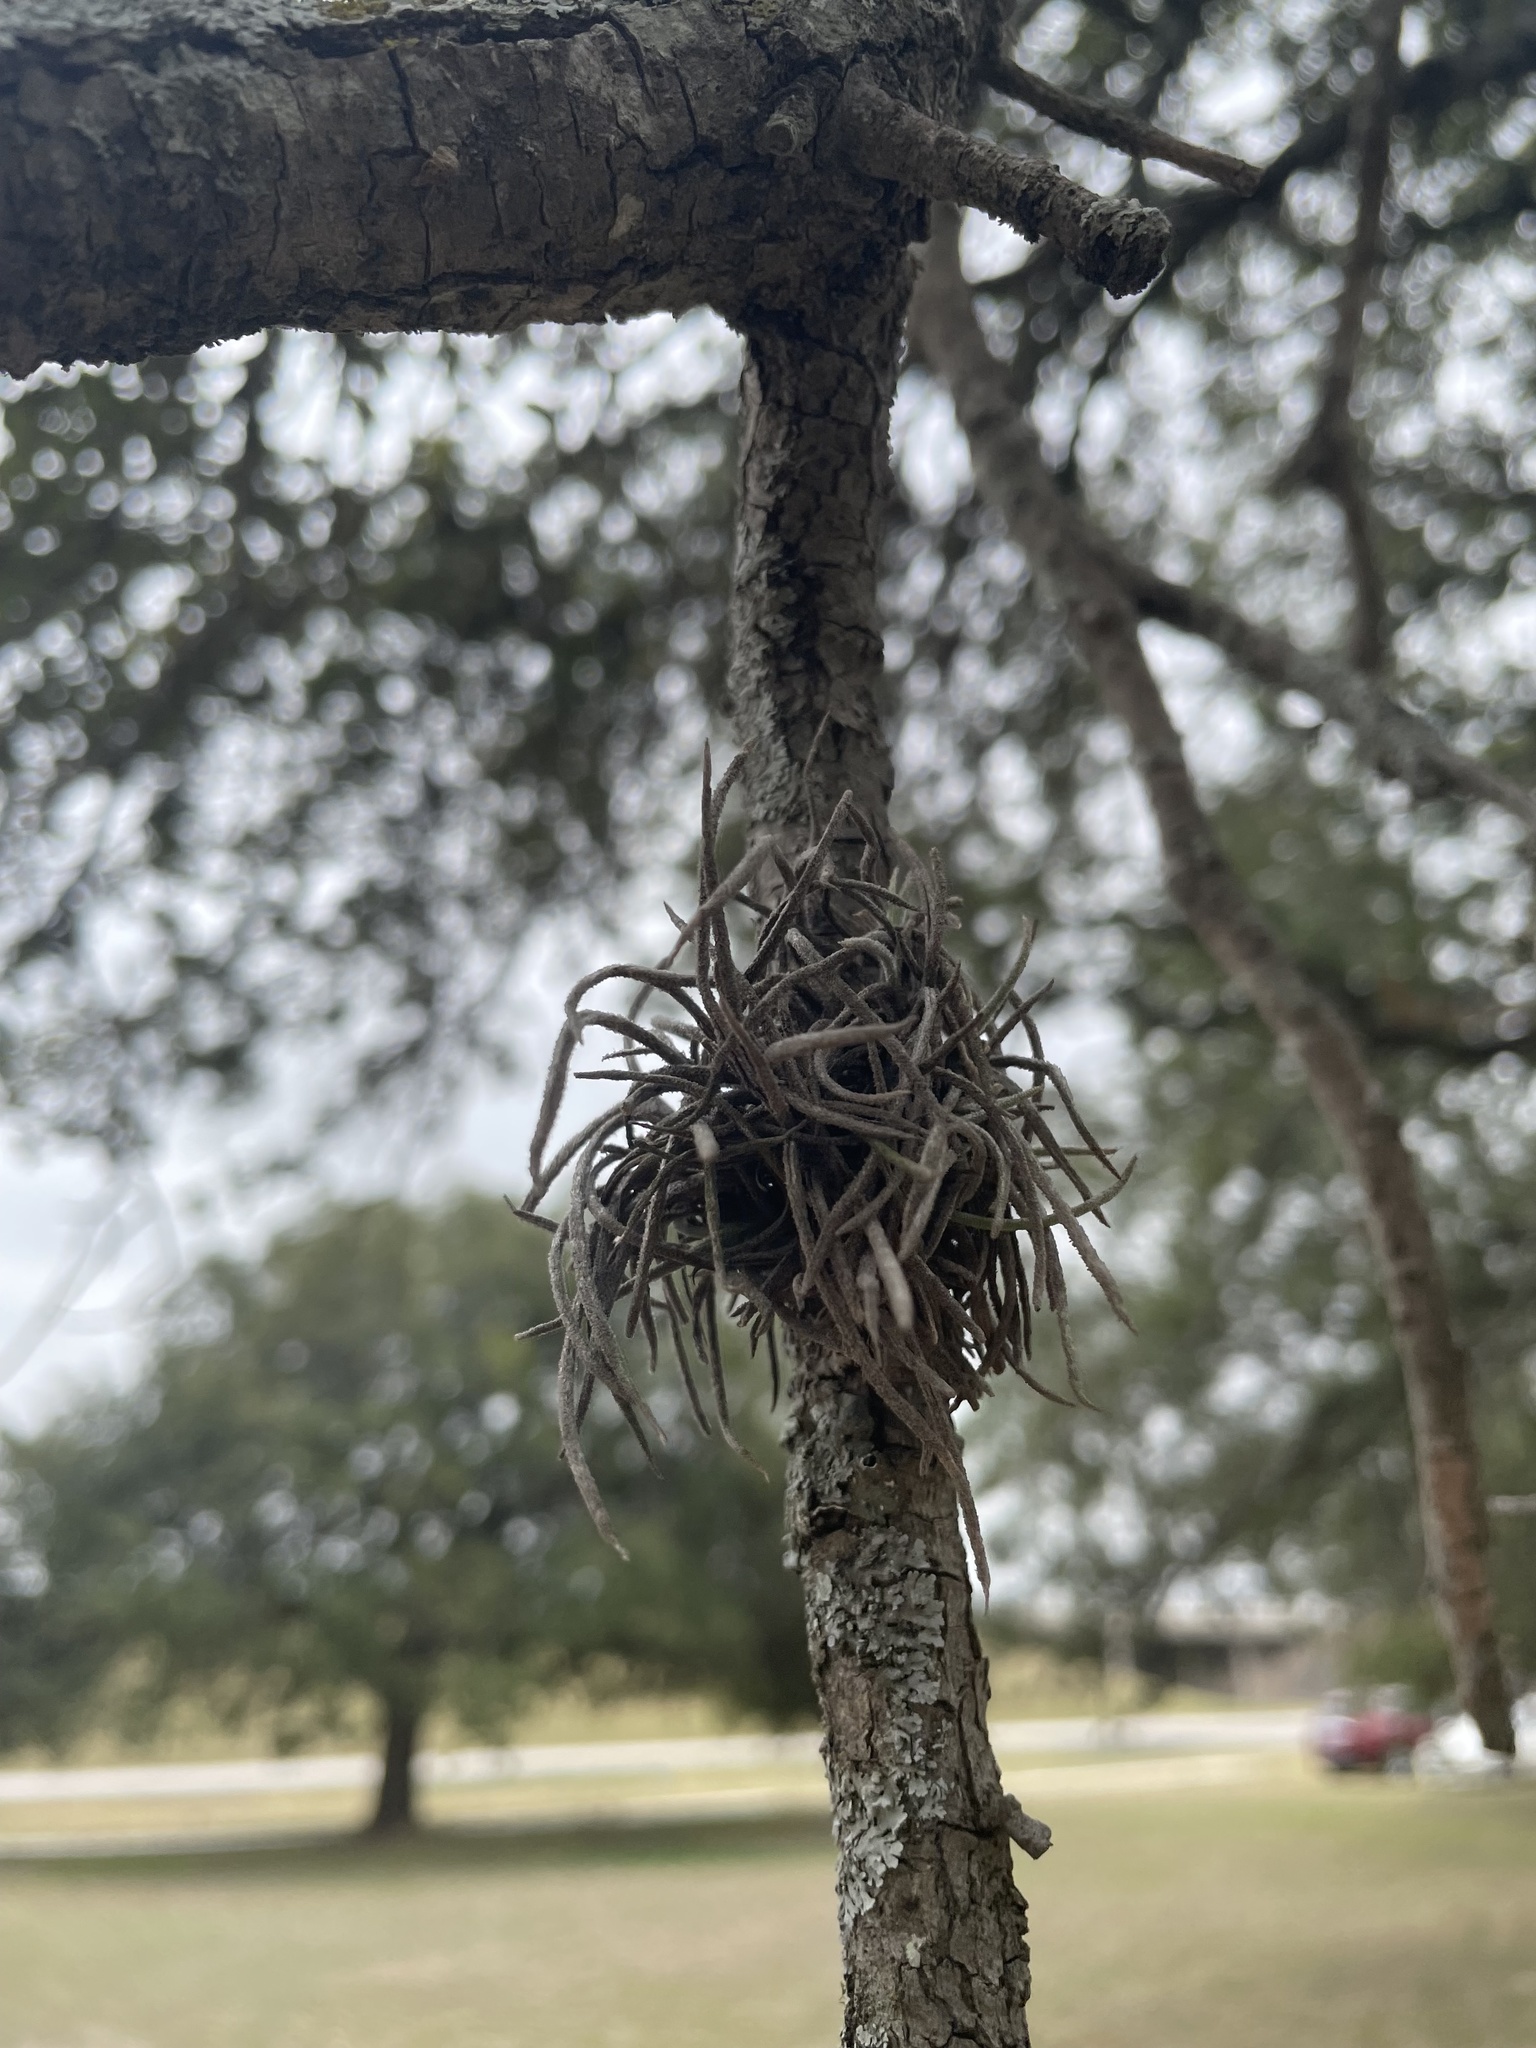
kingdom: Plantae
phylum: Tracheophyta
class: Liliopsida
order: Poales
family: Bromeliaceae
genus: Tillandsia
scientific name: Tillandsia recurvata
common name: Small ballmoss
